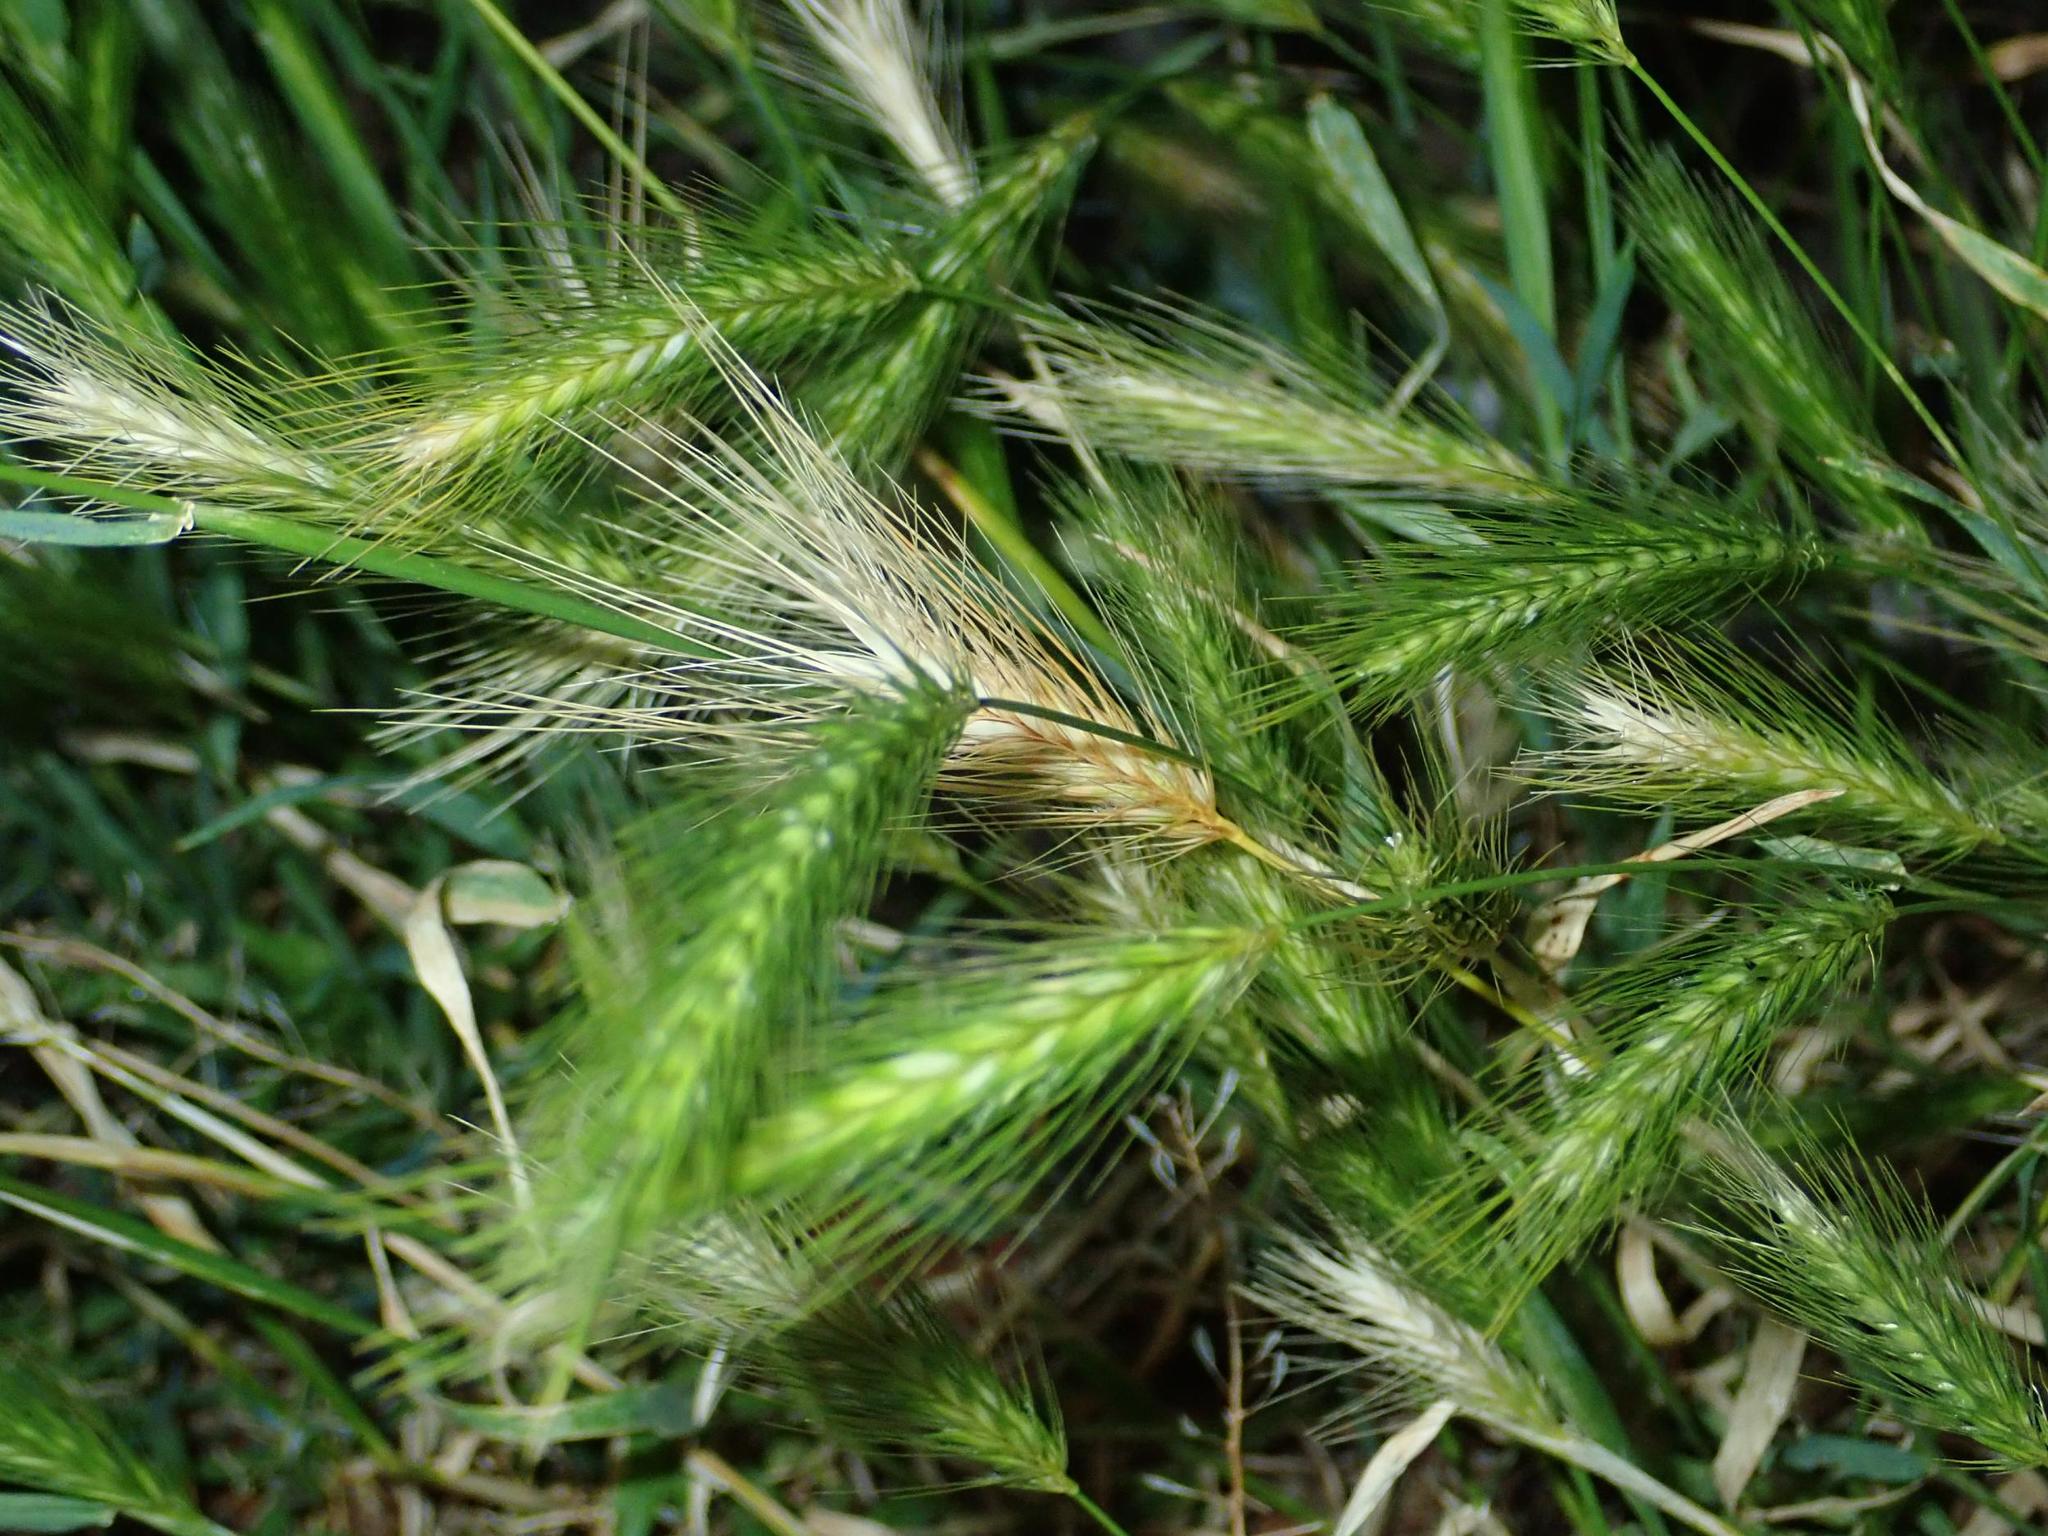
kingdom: Plantae
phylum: Tracheophyta
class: Liliopsida
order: Poales
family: Poaceae
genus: Hordeum
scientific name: Hordeum murinum
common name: Wall barley
